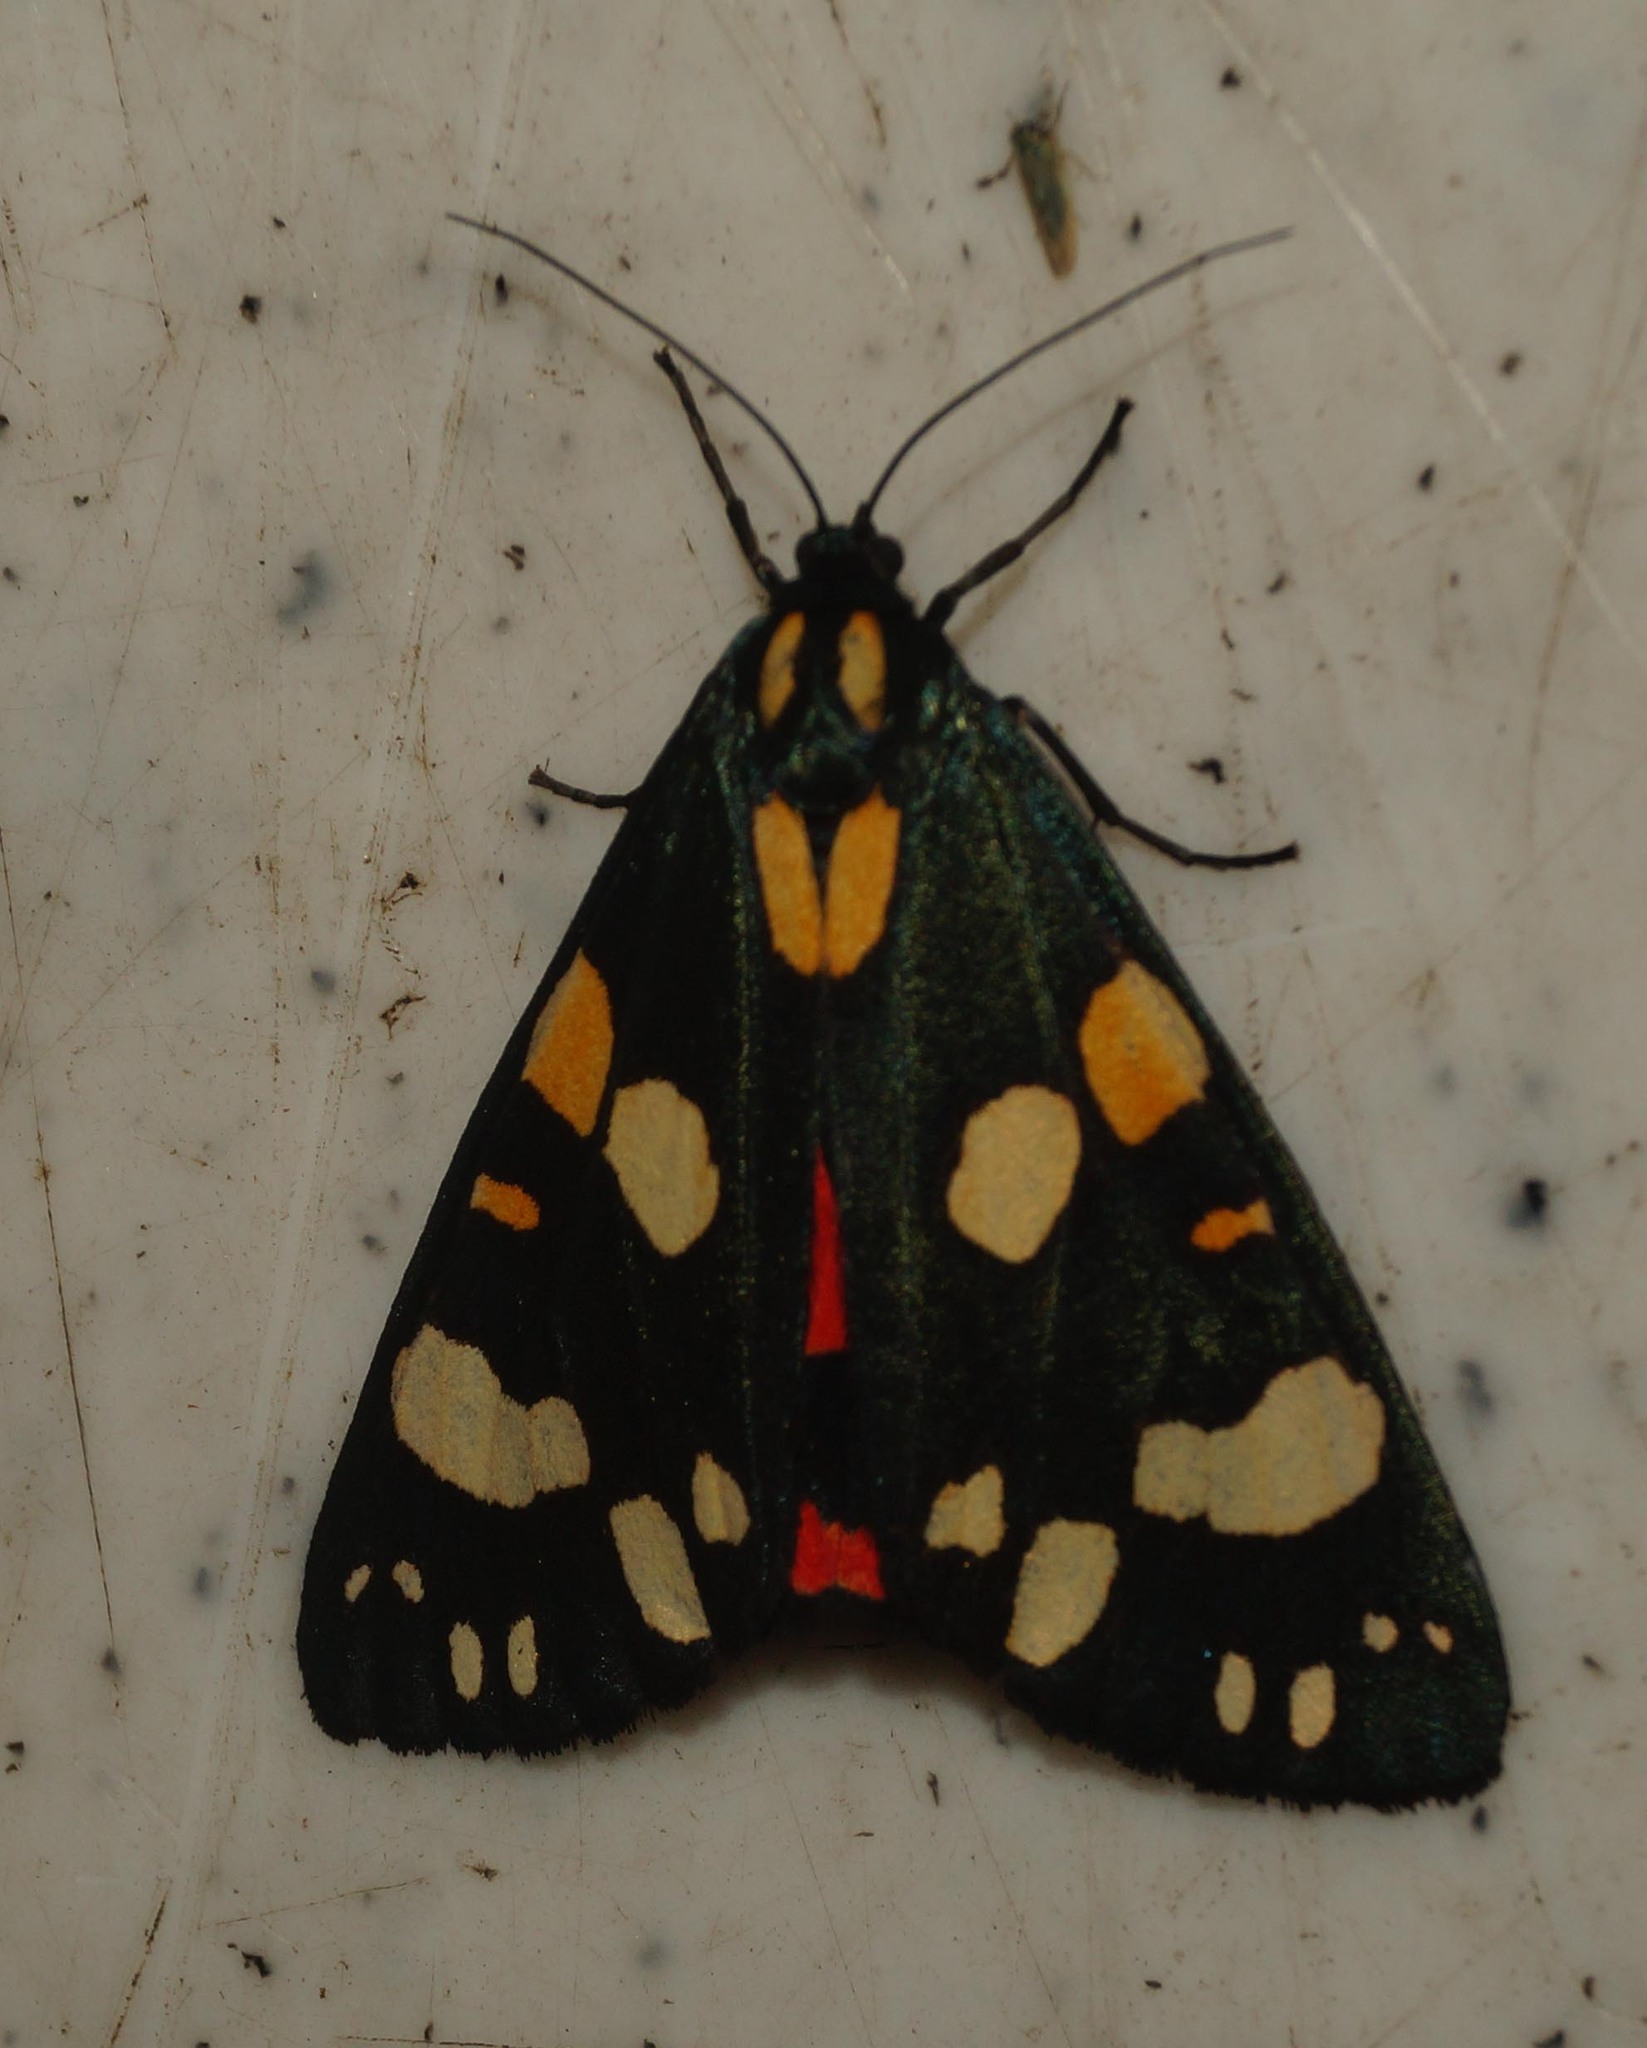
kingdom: Animalia
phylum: Arthropoda
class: Insecta
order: Lepidoptera
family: Erebidae
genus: Callimorpha
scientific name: Callimorpha dominula
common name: Scarlet tiger
